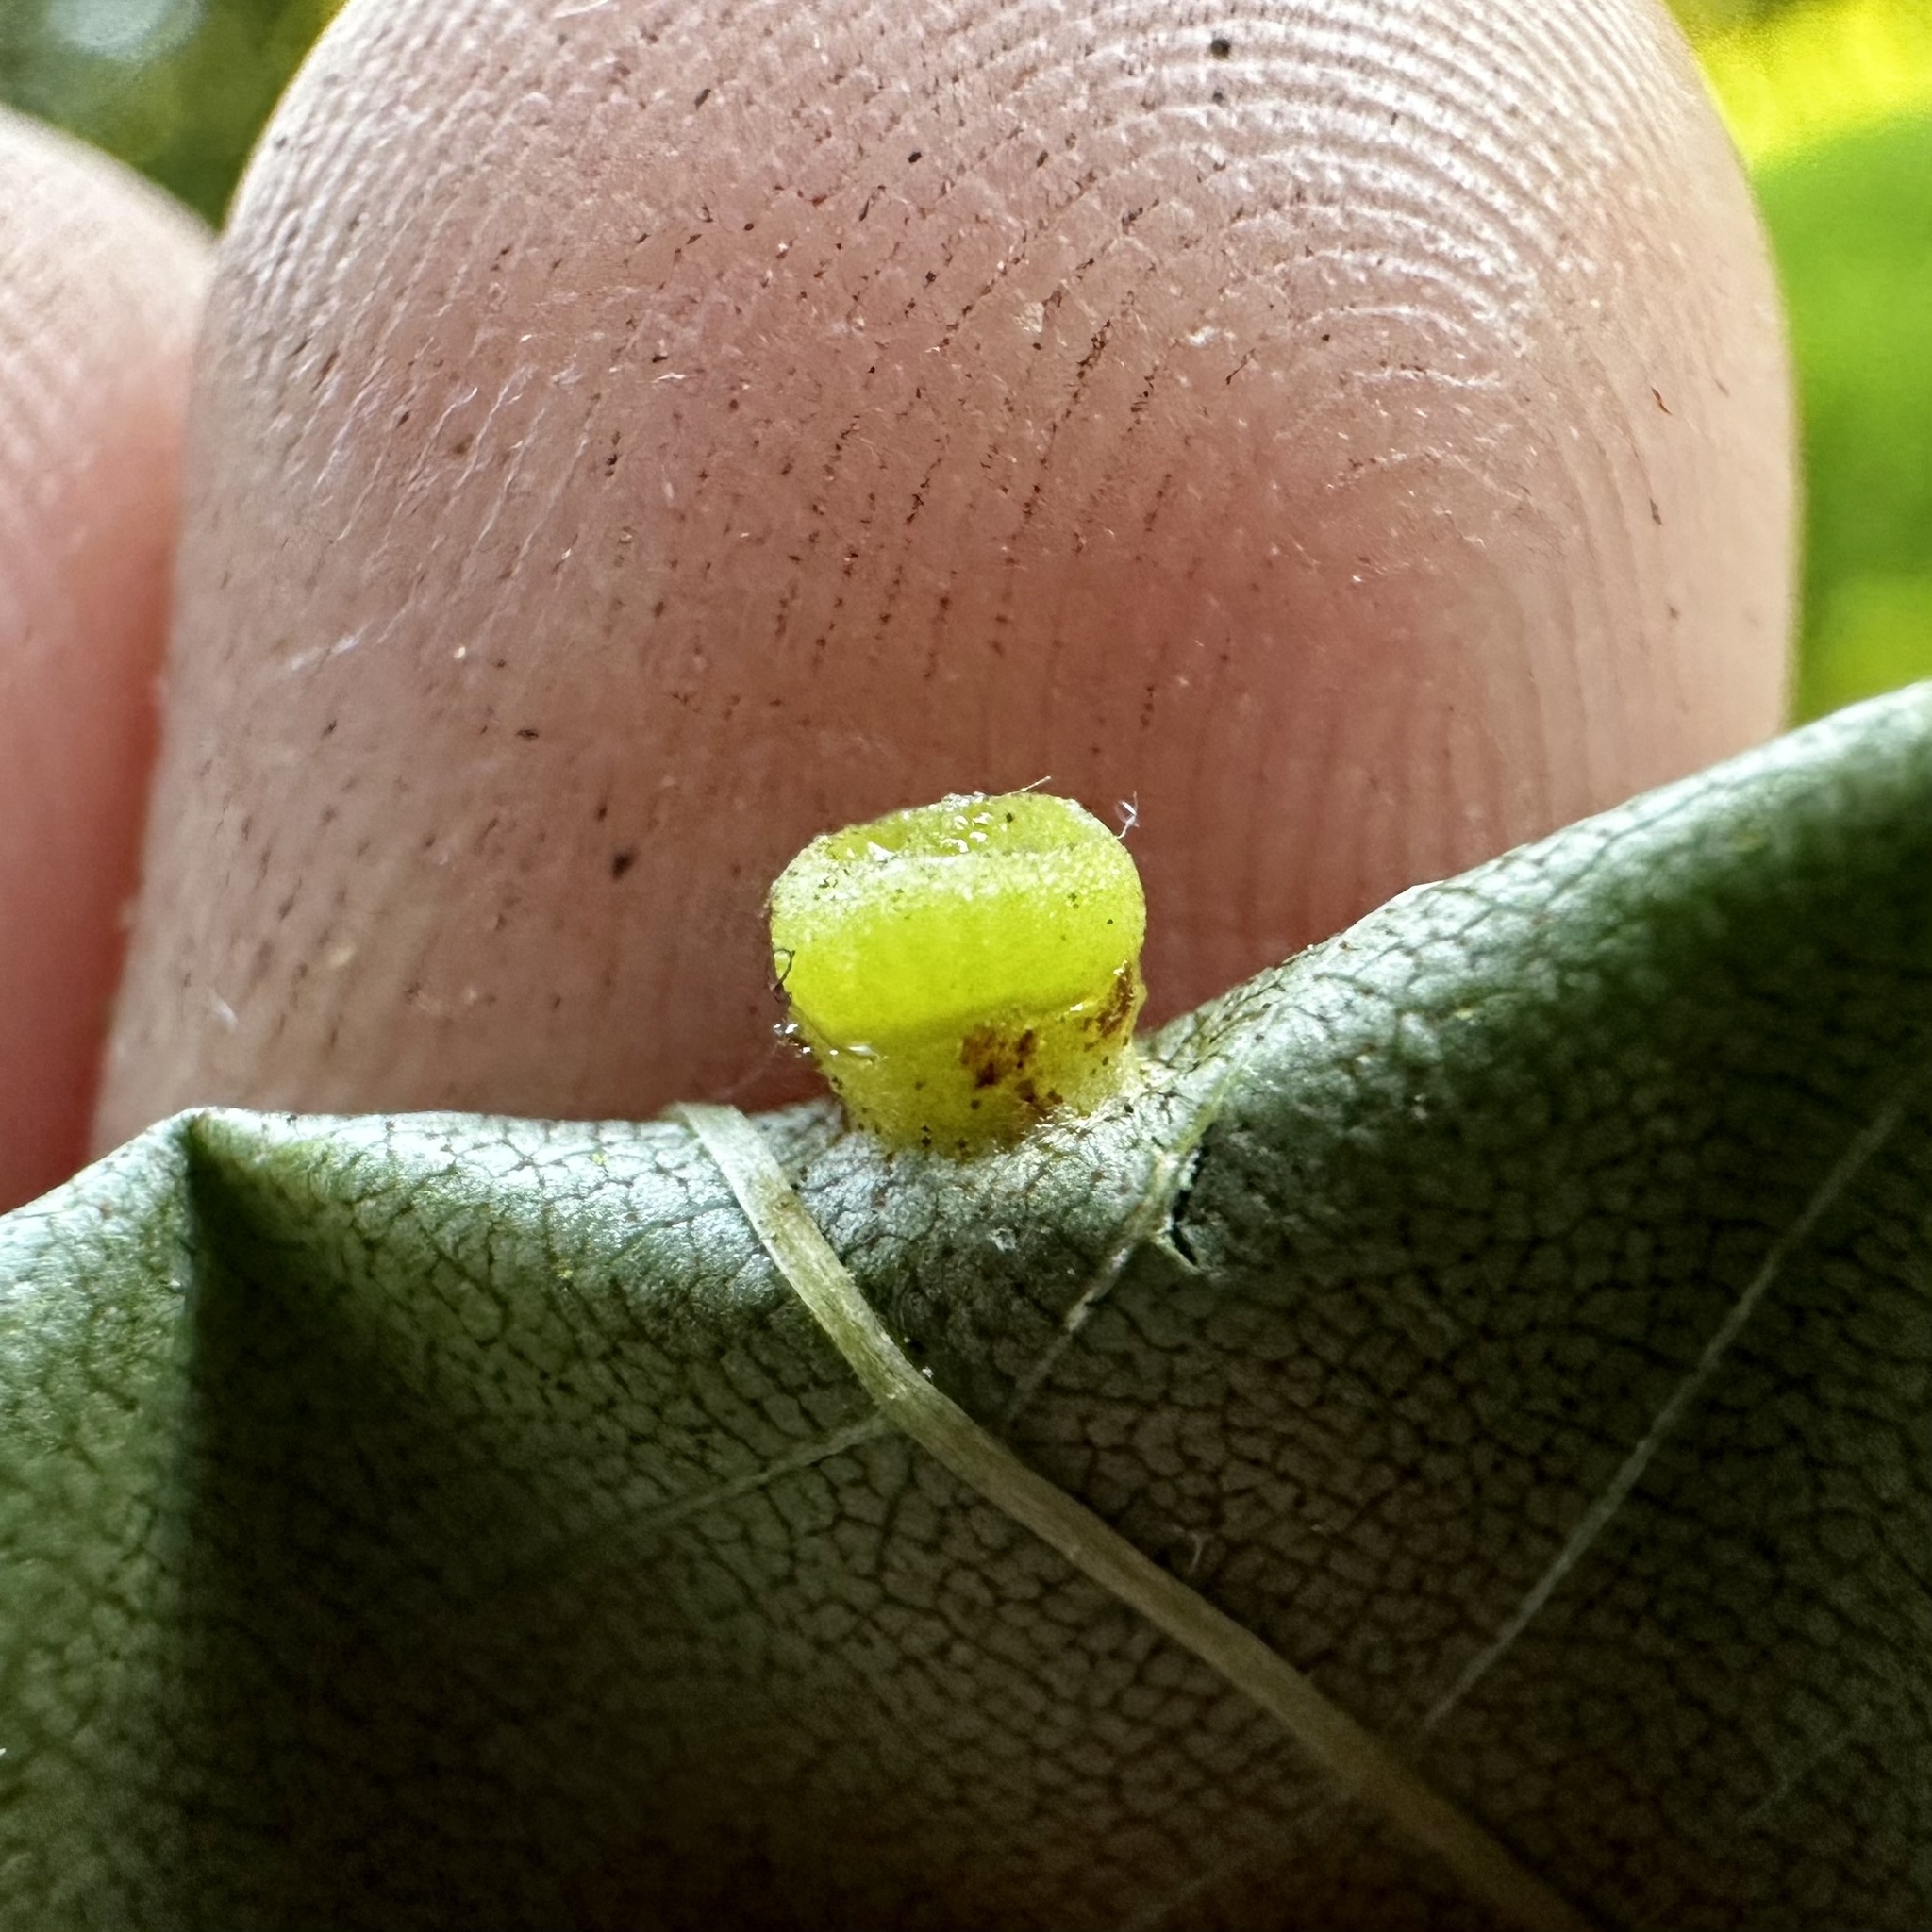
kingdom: Animalia
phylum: Arthropoda
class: Insecta
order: Diptera
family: Cecidomyiidae
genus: Caryomyia
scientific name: Caryomyia melicrustum
